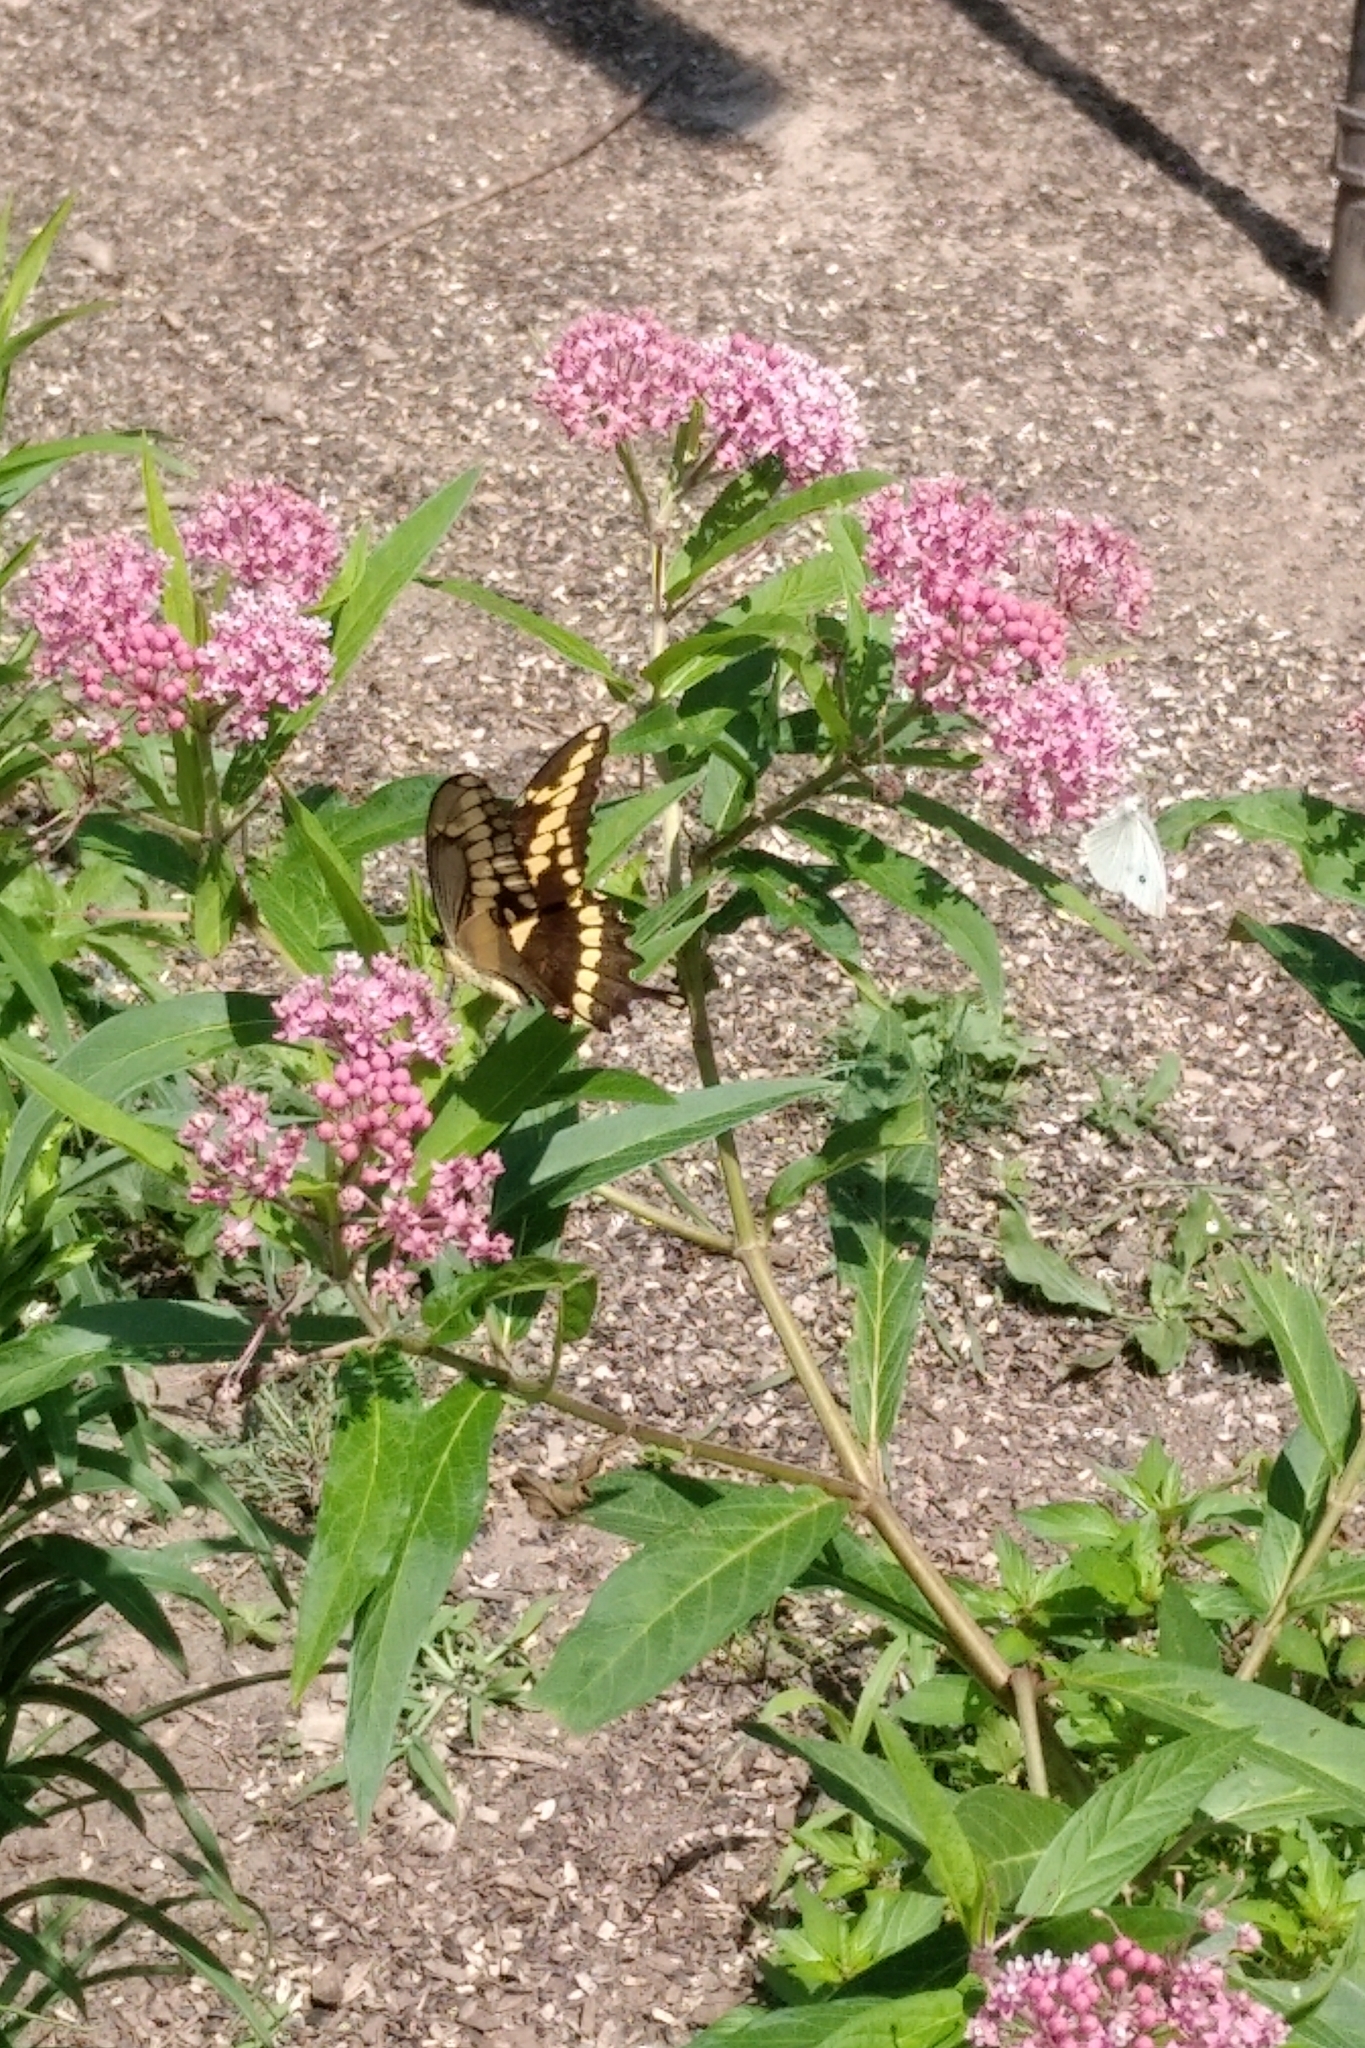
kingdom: Animalia
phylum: Arthropoda
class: Insecta
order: Lepidoptera
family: Papilionidae
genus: Papilio
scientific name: Papilio cresphontes
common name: Giant swallowtail
